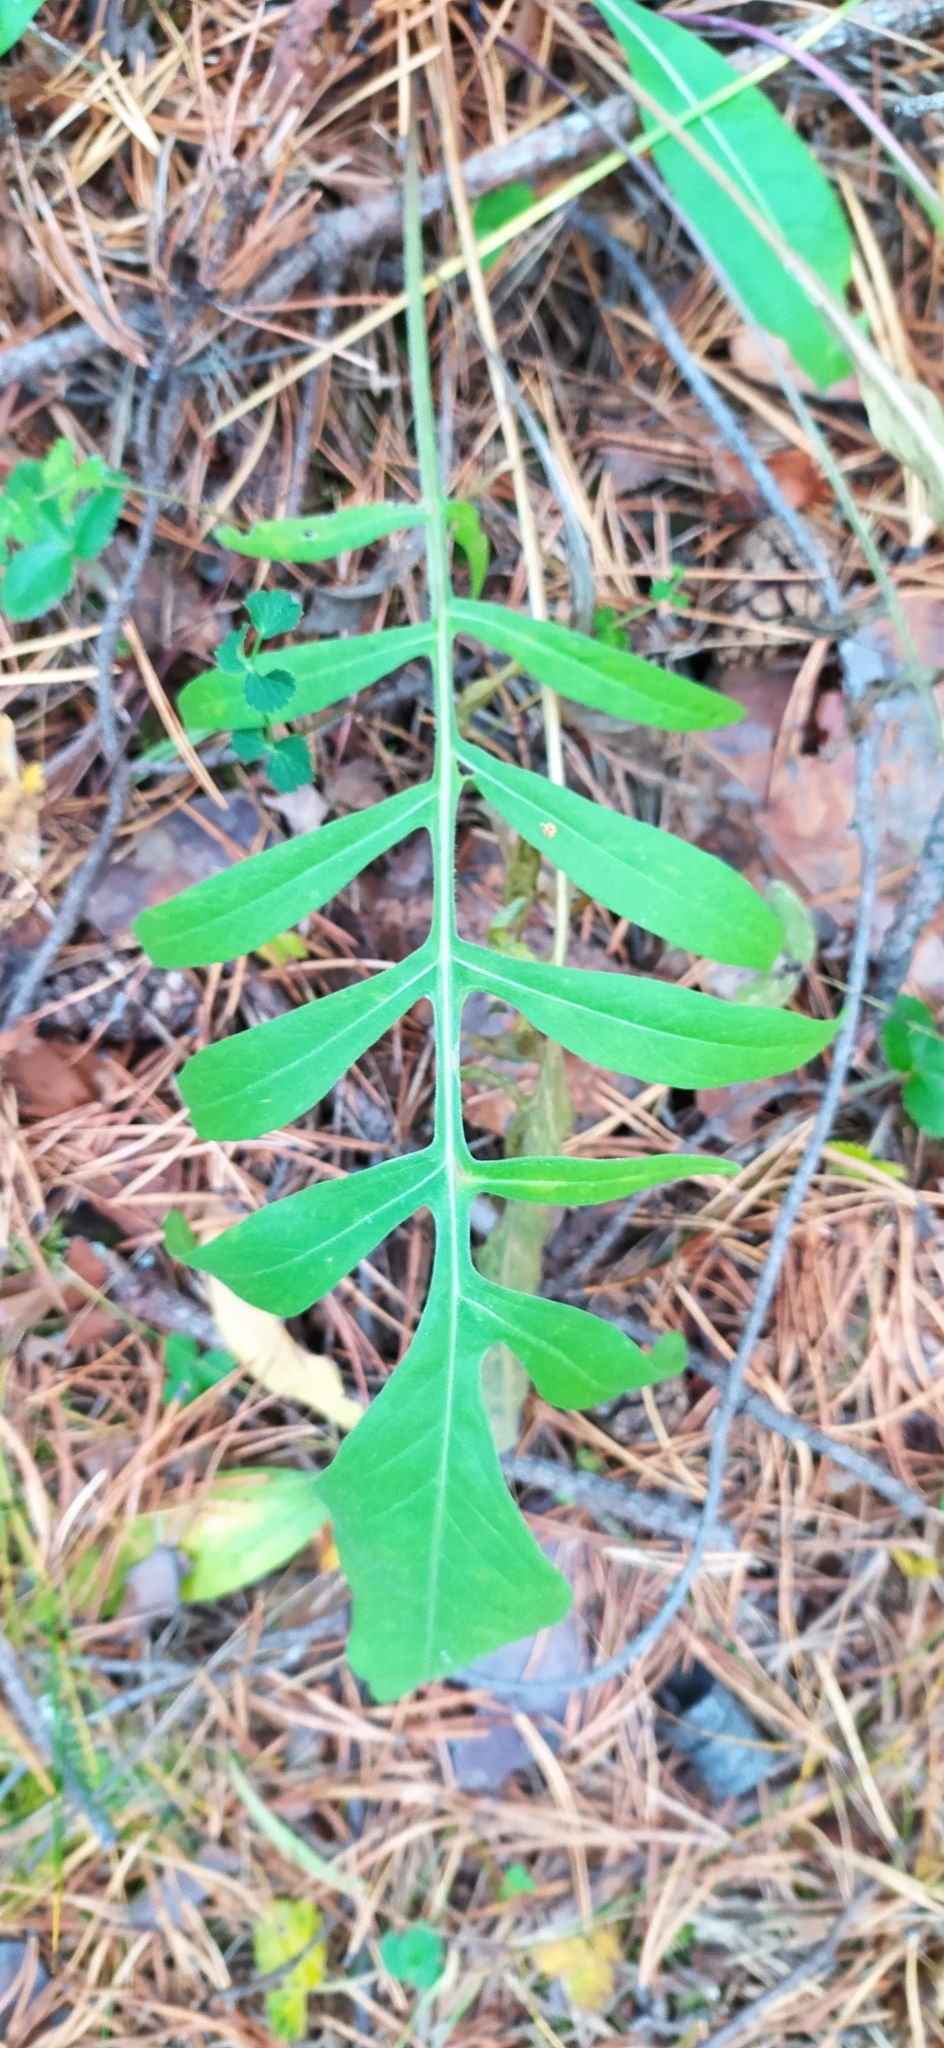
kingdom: Plantae
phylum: Tracheophyta
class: Magnoliopsida
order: Asterales
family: Asteraceae
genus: Centaurea
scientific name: Centaurea scabiosa
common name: Greater knapweed
